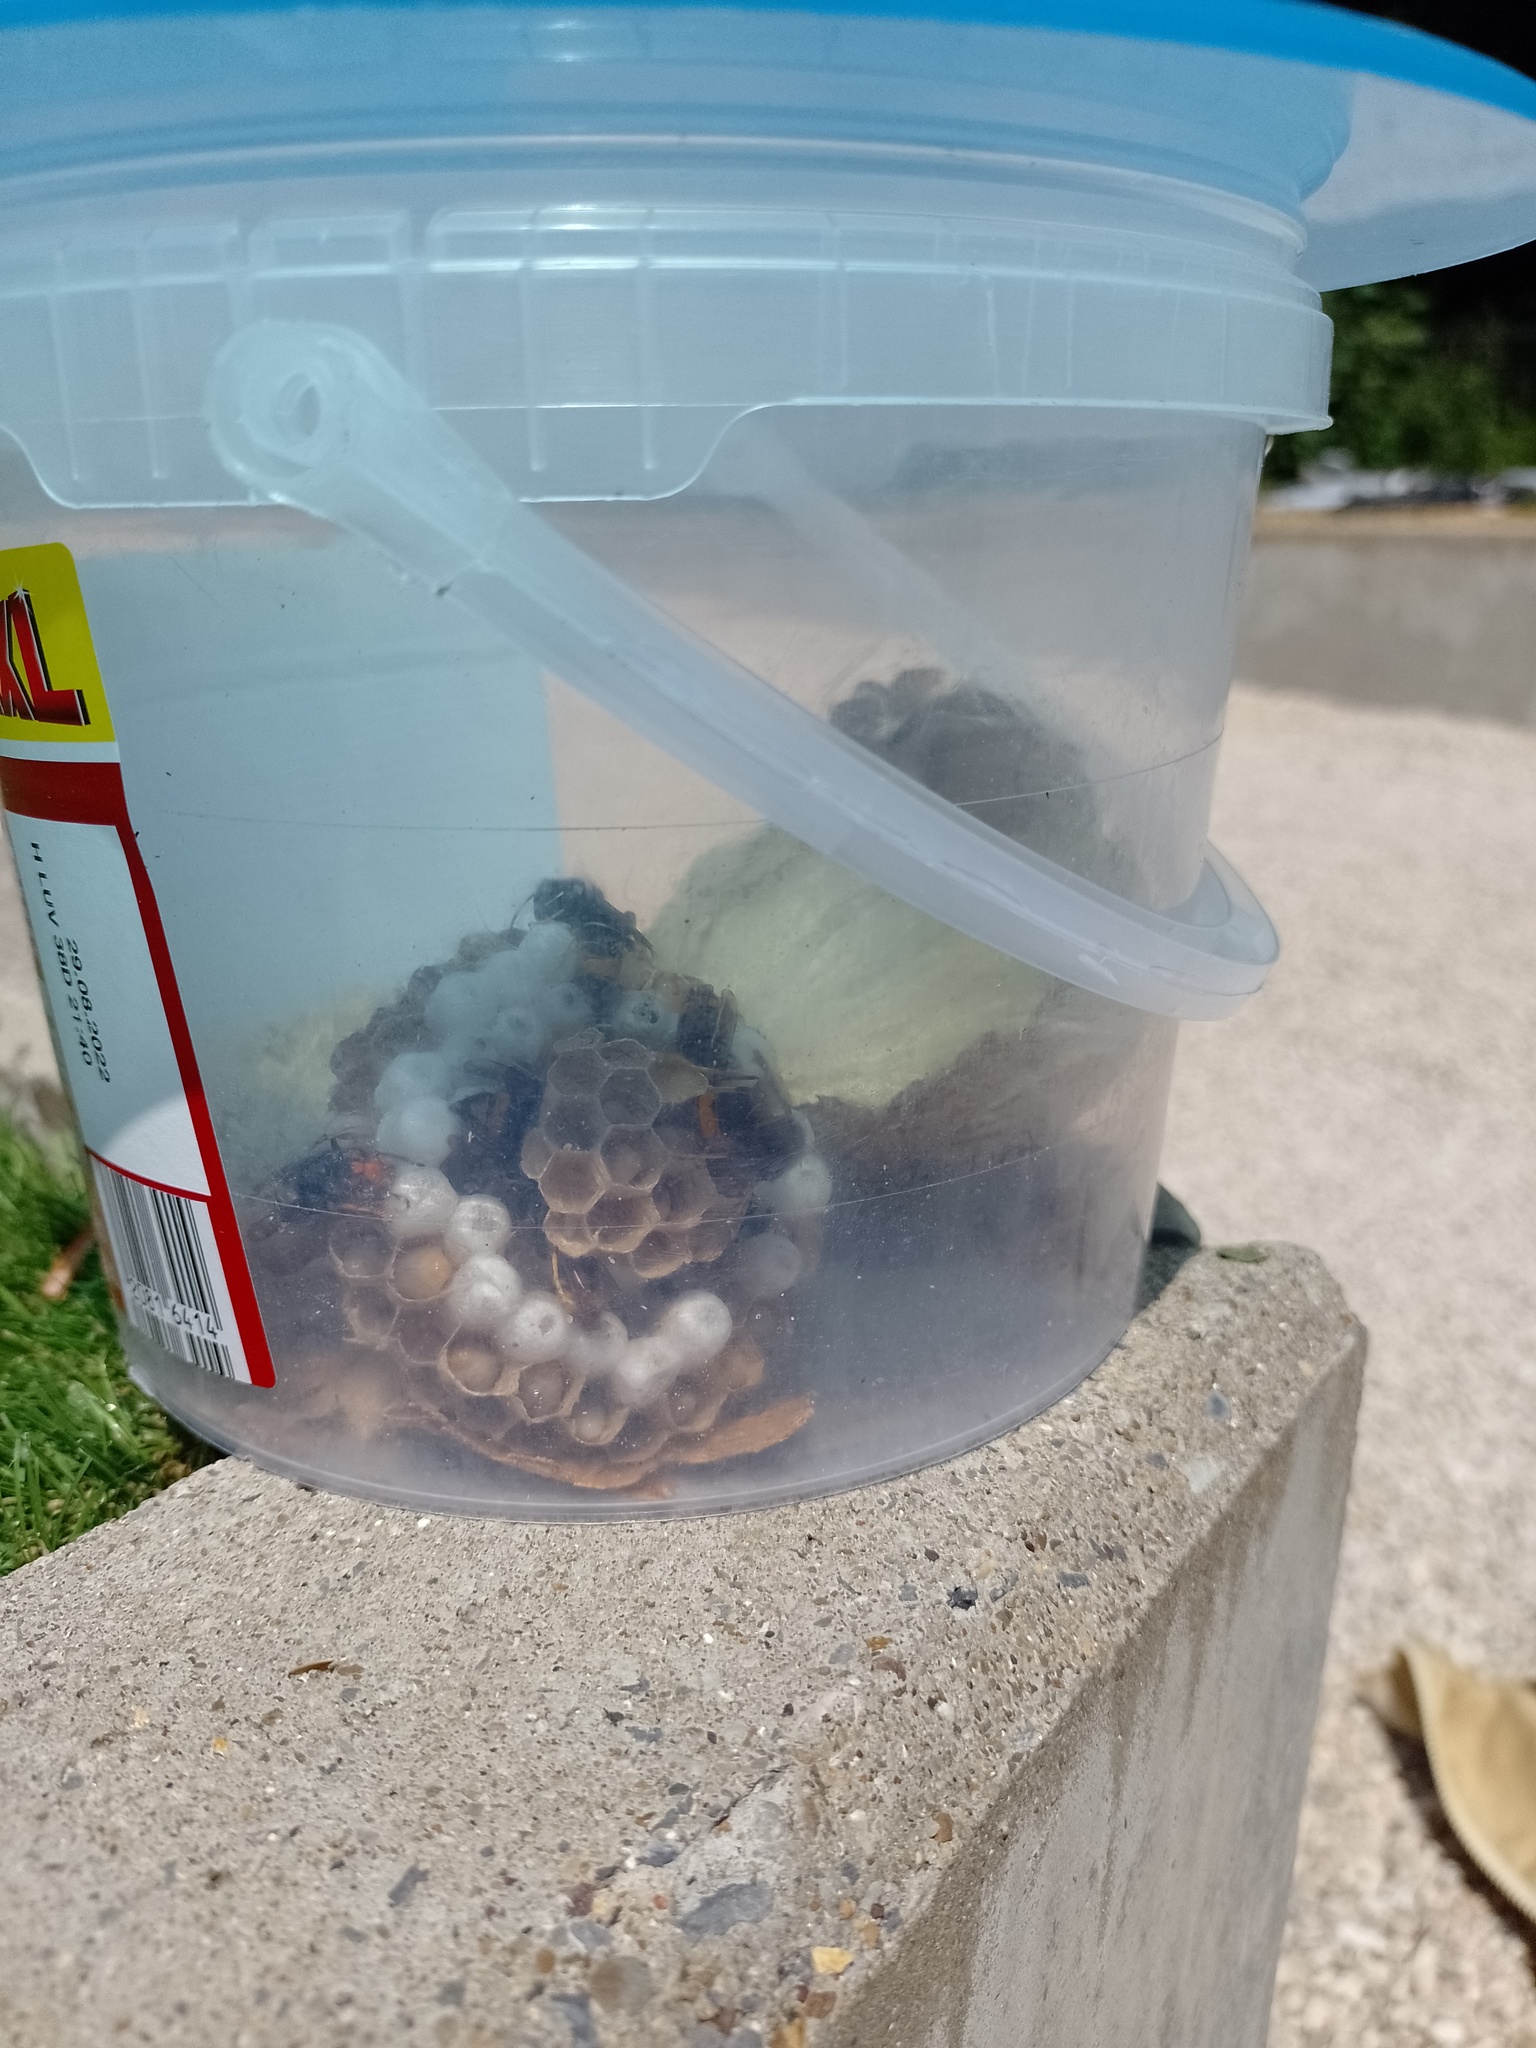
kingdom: Animalia
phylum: Arthropoda
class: Insecta
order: Hymenoptera
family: Vespidae
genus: Vespa
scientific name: Vespa velutina
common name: Asian hornet
